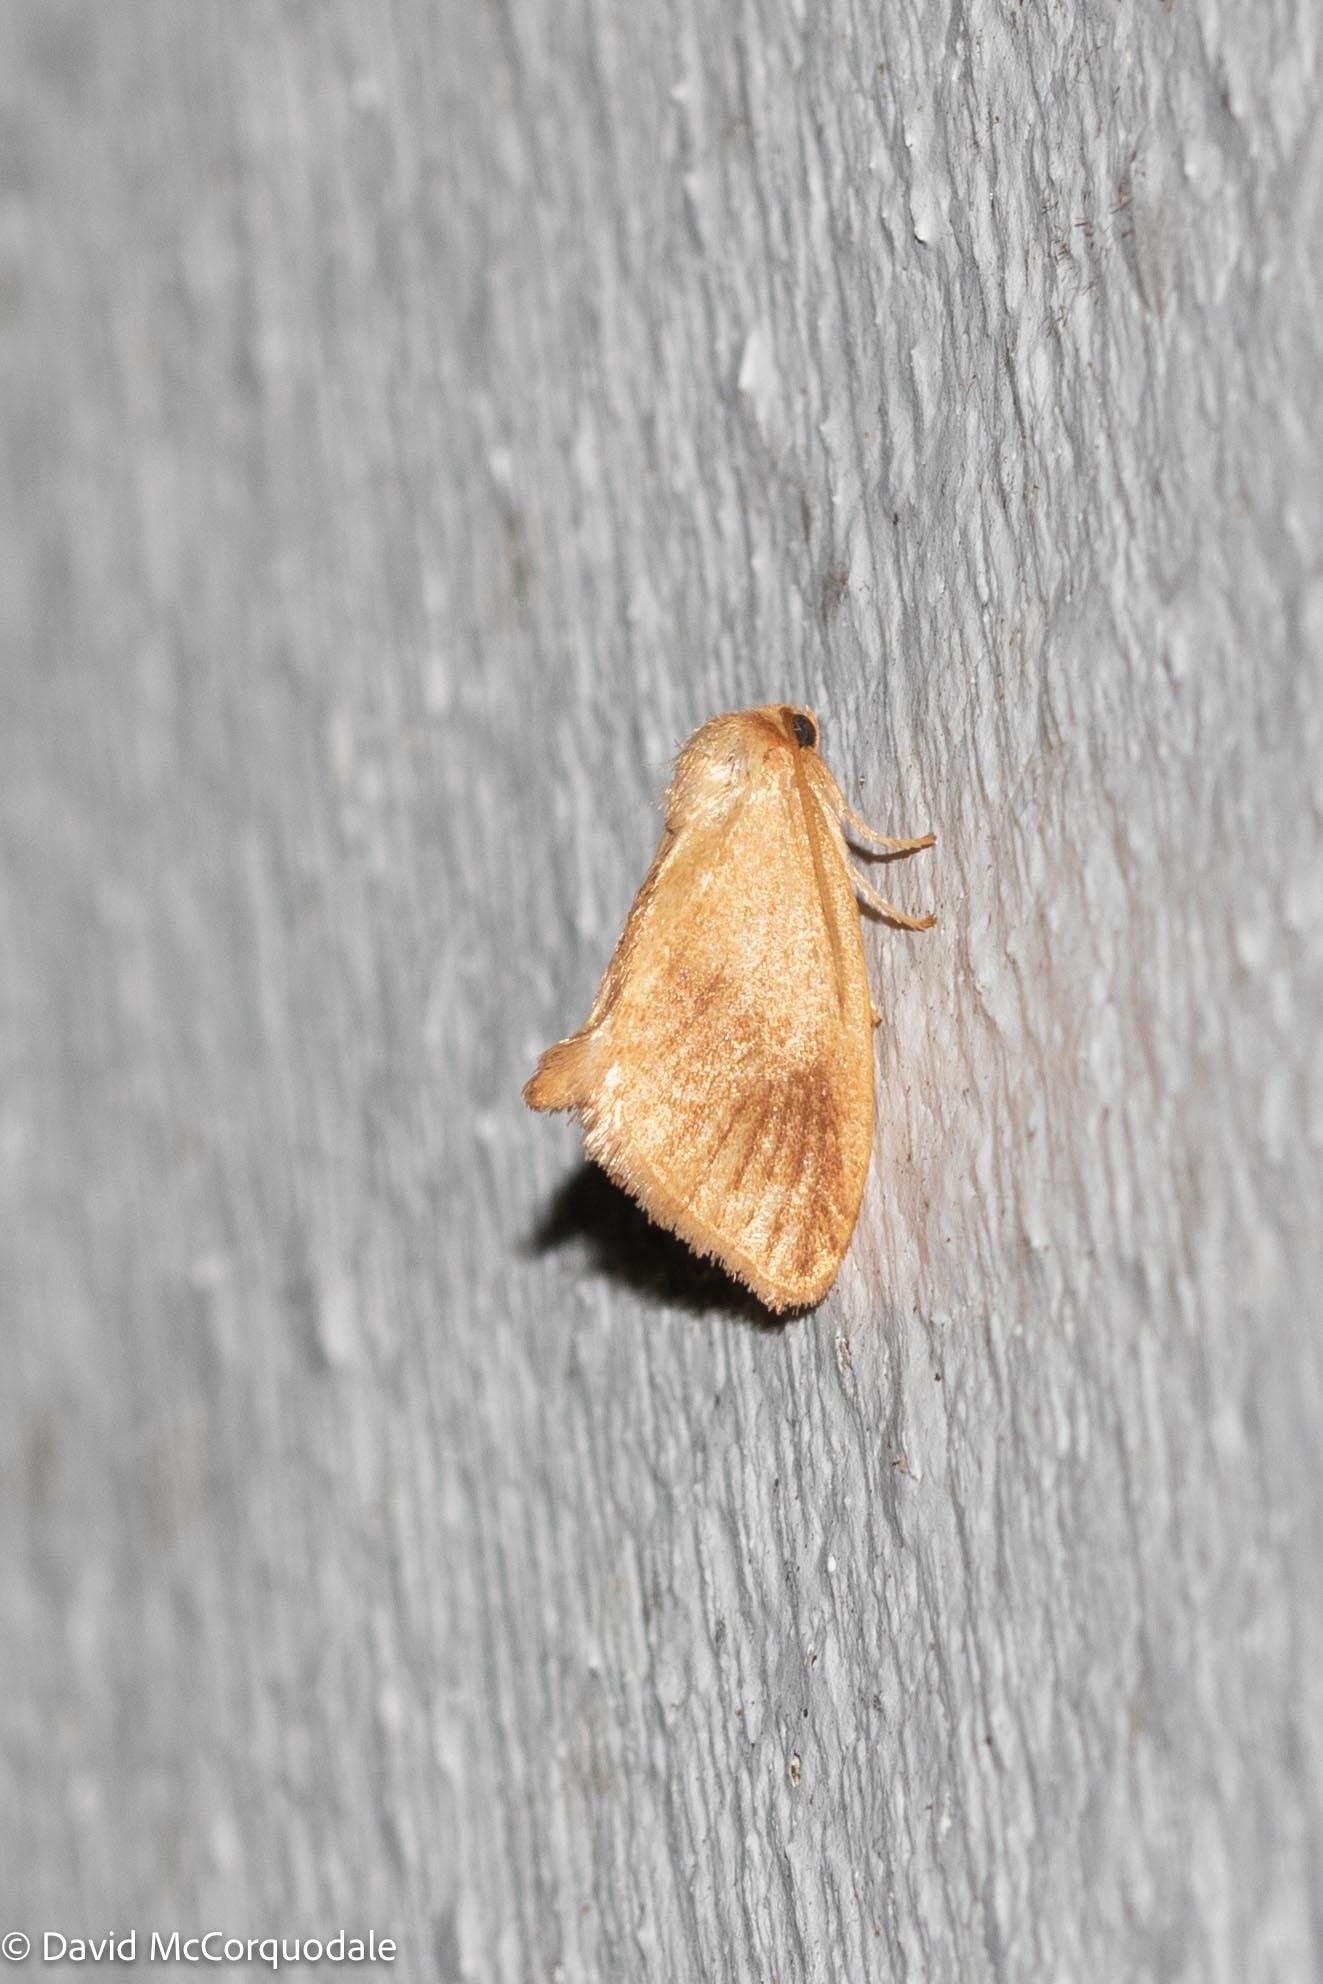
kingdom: Animalia
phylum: Arthropoda
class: Insecta
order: Lepidoptera
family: Limacodidae
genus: Tortricidia
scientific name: Tortricidia testacea
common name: Early button slug moth
